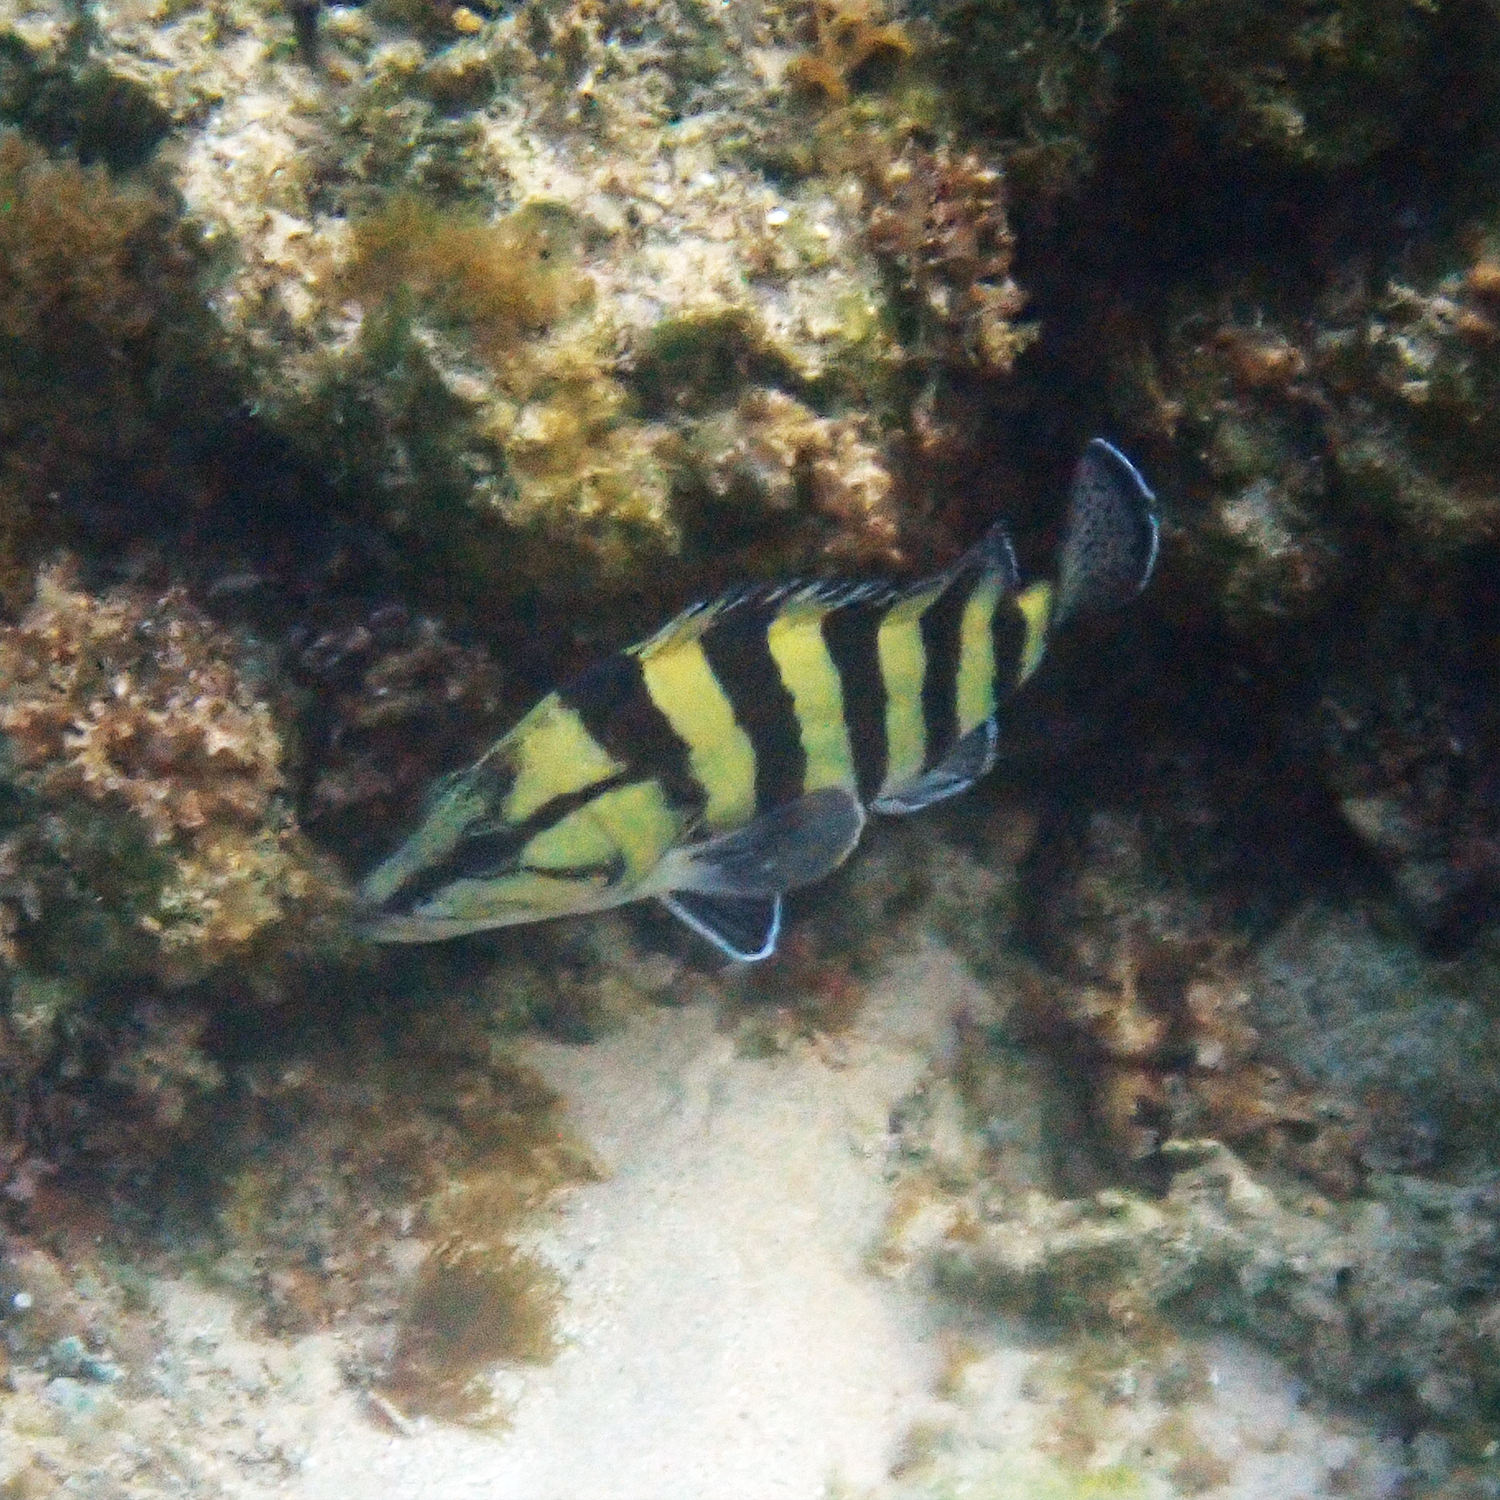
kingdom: Animalia
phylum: Chordata
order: Perciformes
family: Serranidae
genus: Acanthistius
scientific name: Acanthistius cinctus
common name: Girdled rock cod
